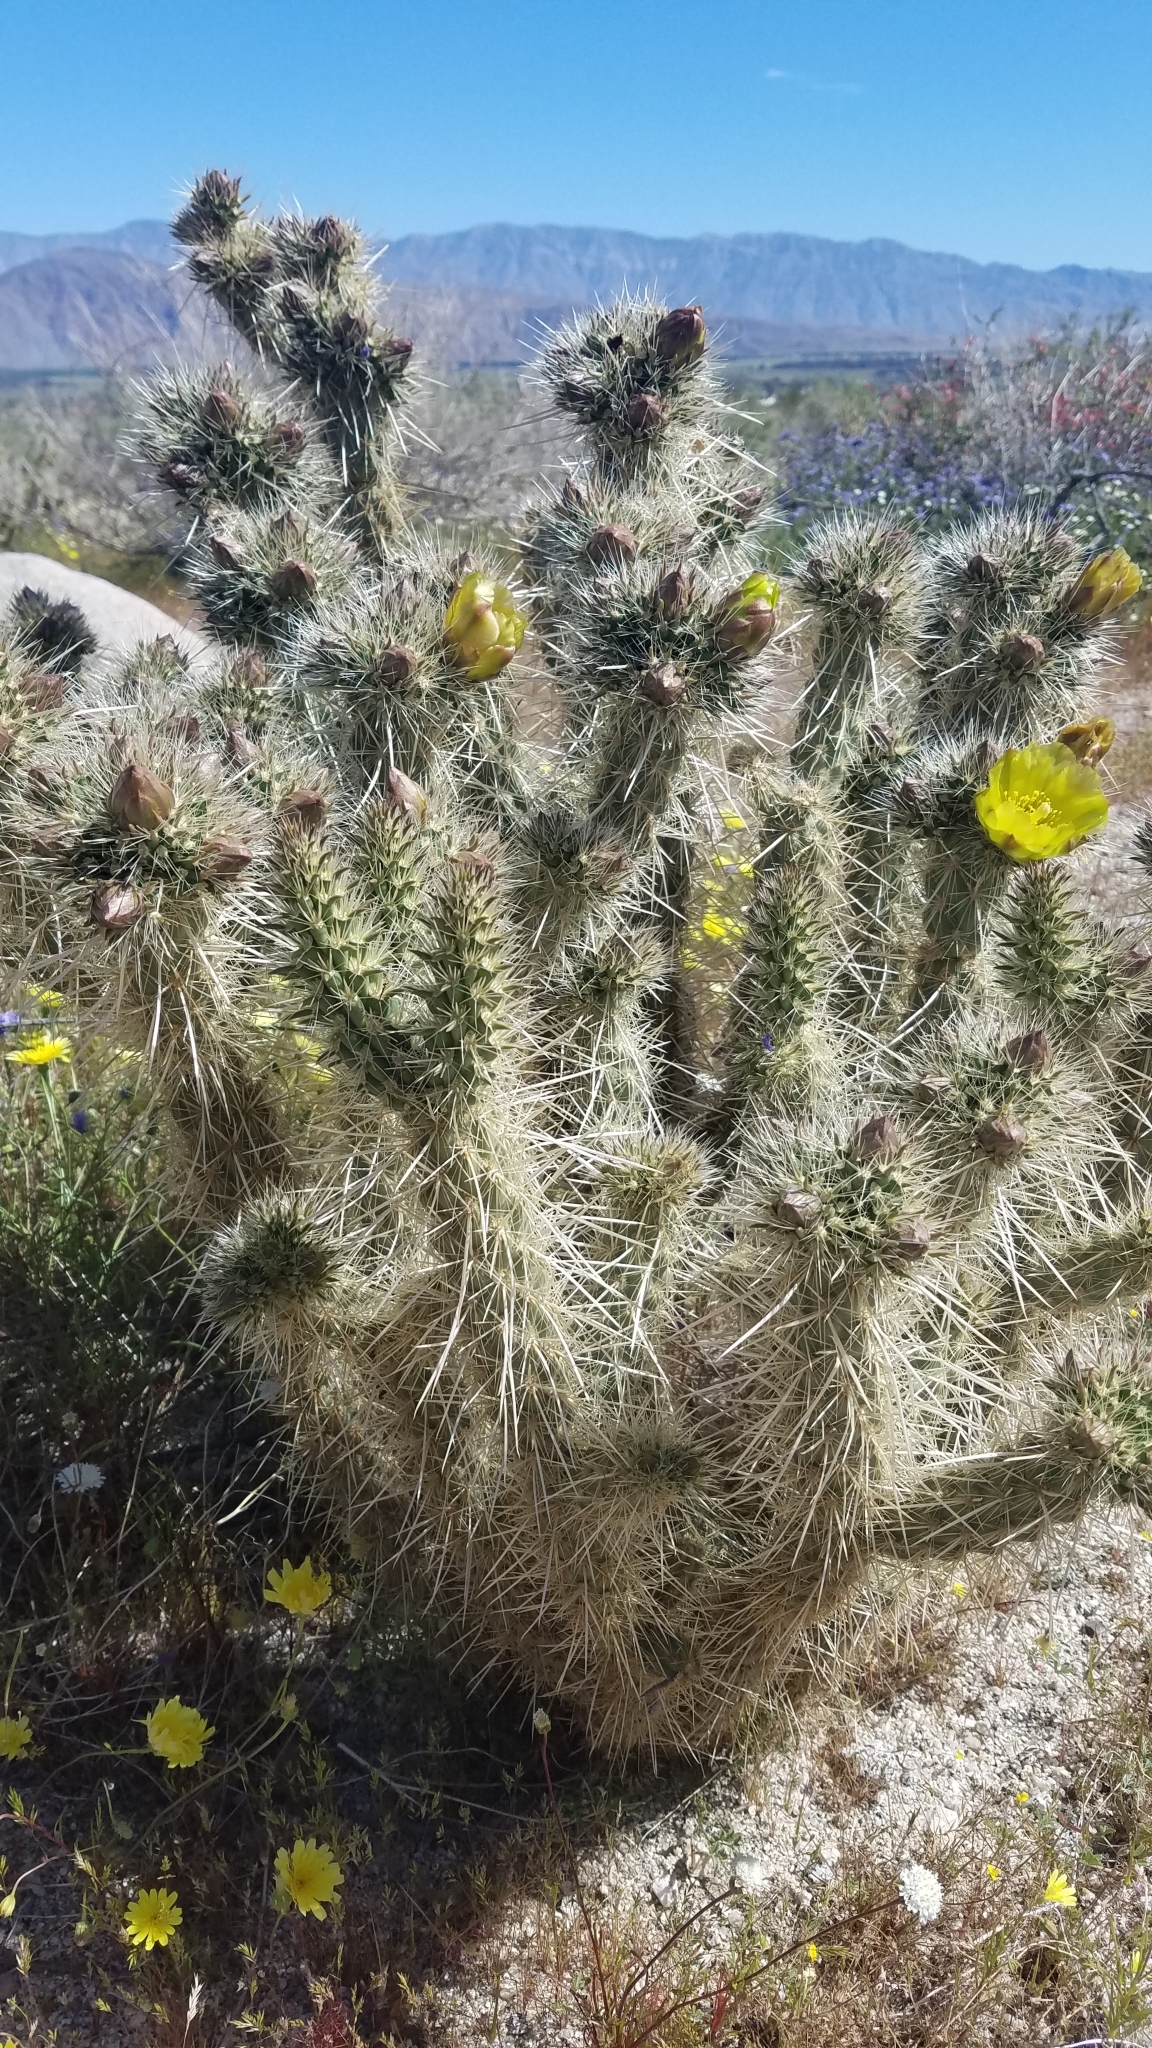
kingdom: Plantae
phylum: Tracheophyta
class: Magnoliopsida
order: Caryophyllales
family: Cactaceae
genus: Cylindropuntia
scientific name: Cylindropuntia ganderi
